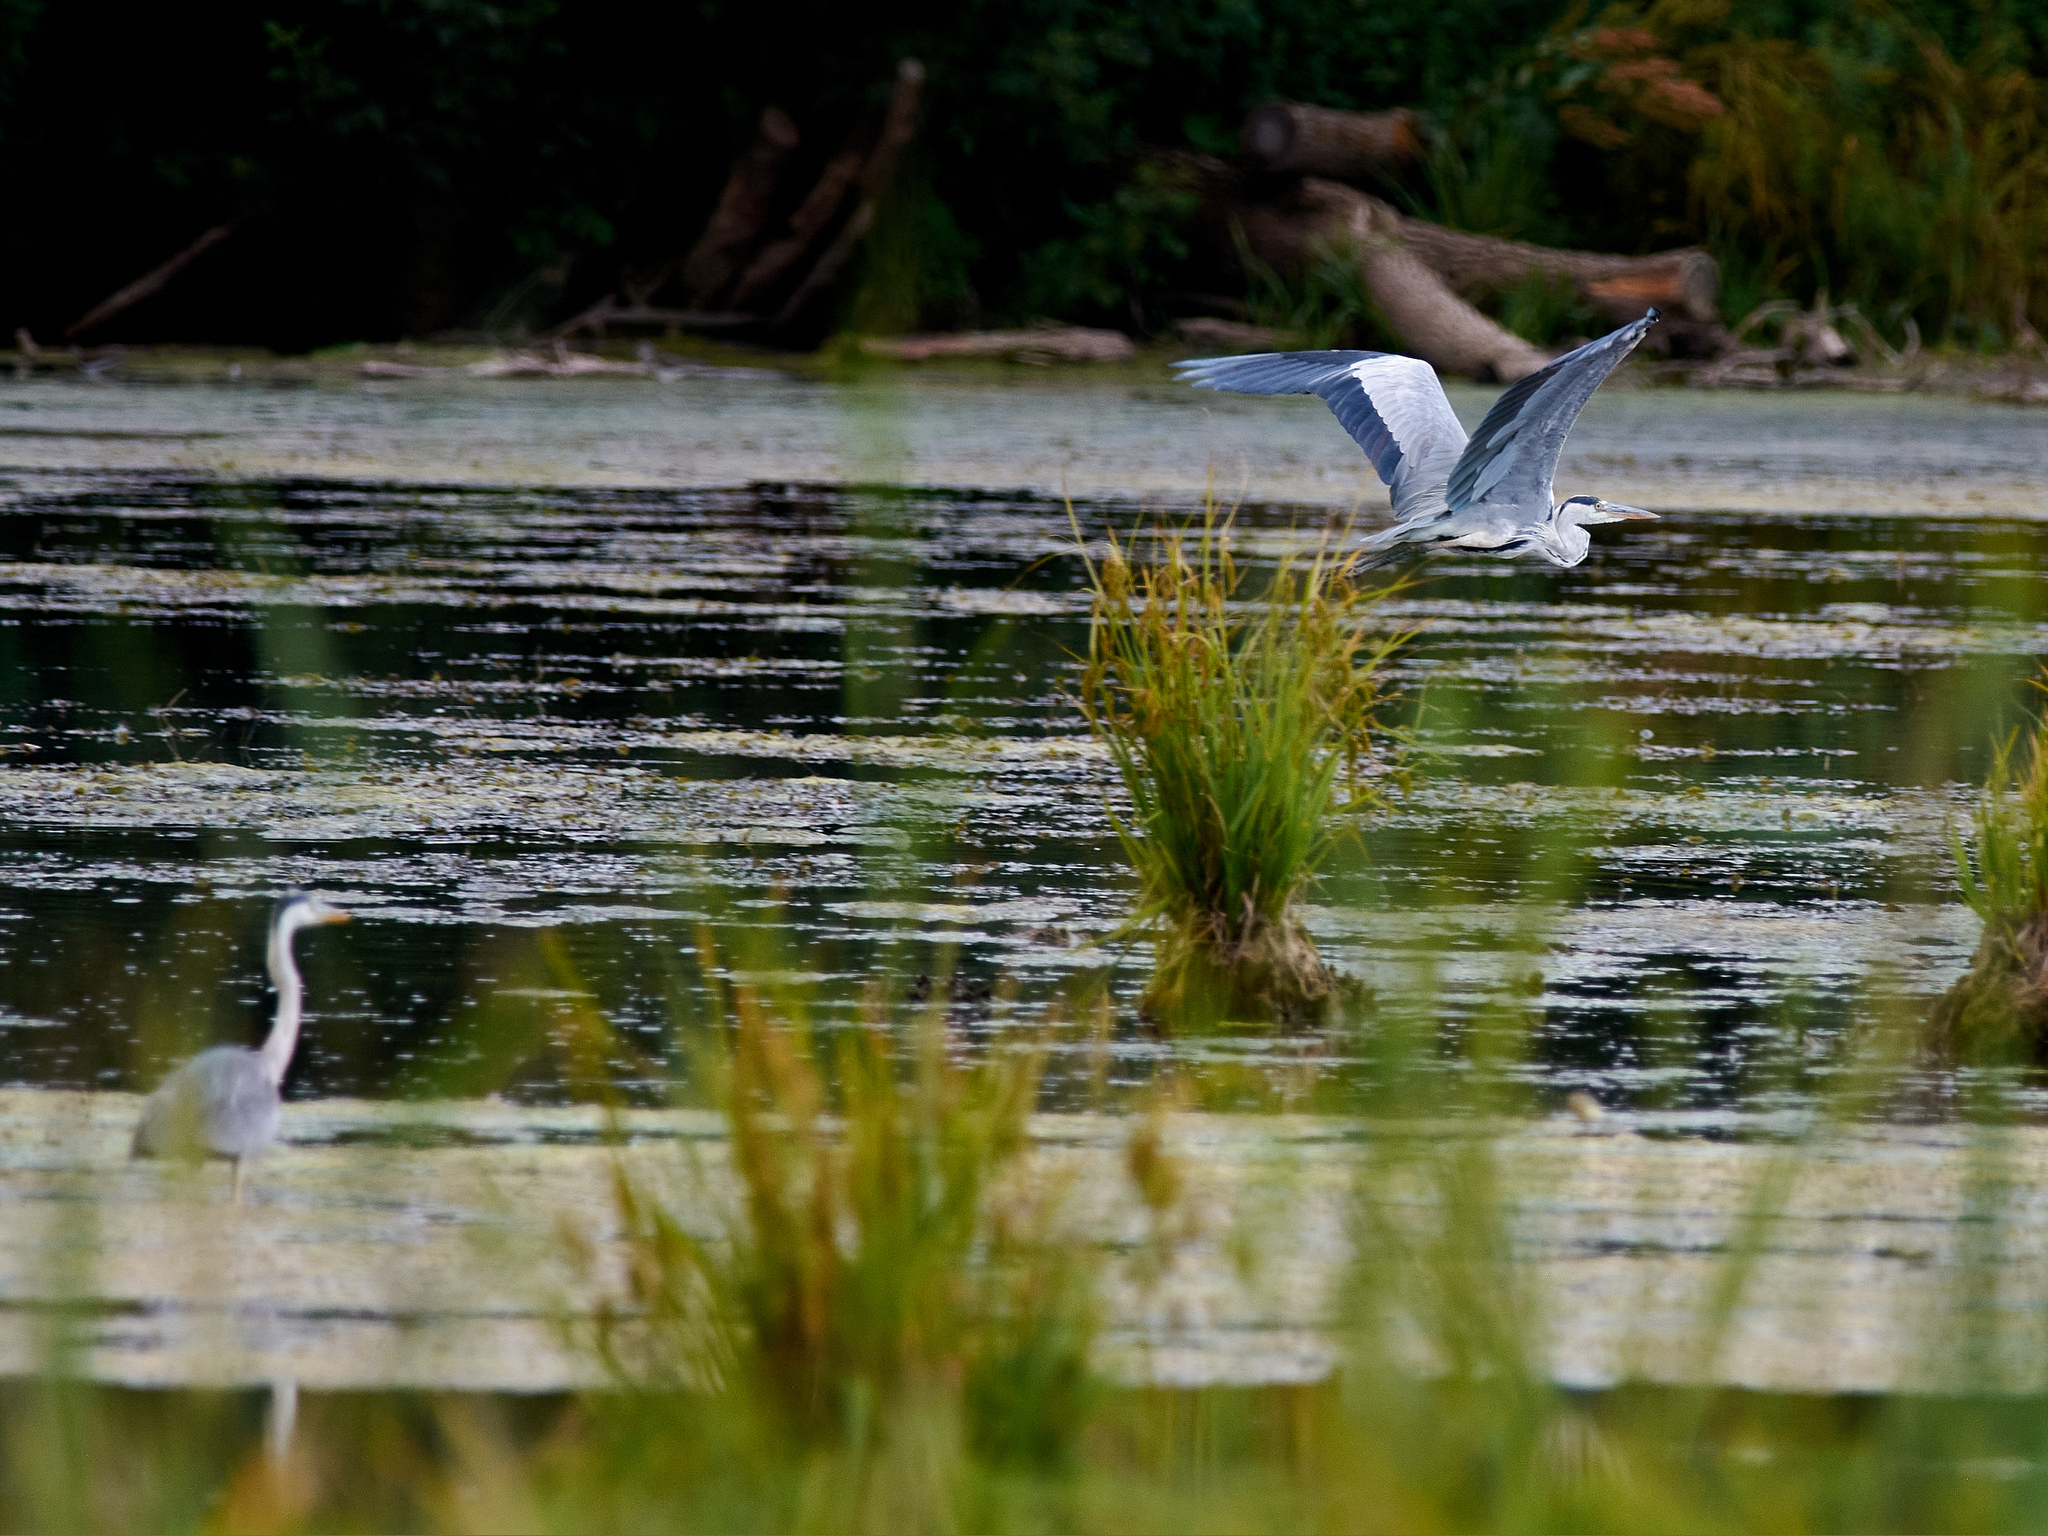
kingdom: Animalia
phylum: Chordata
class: Aves
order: Pelecaniformes
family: Ardeidae
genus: Ardea
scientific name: Ardea cinerea
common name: Grey heron
